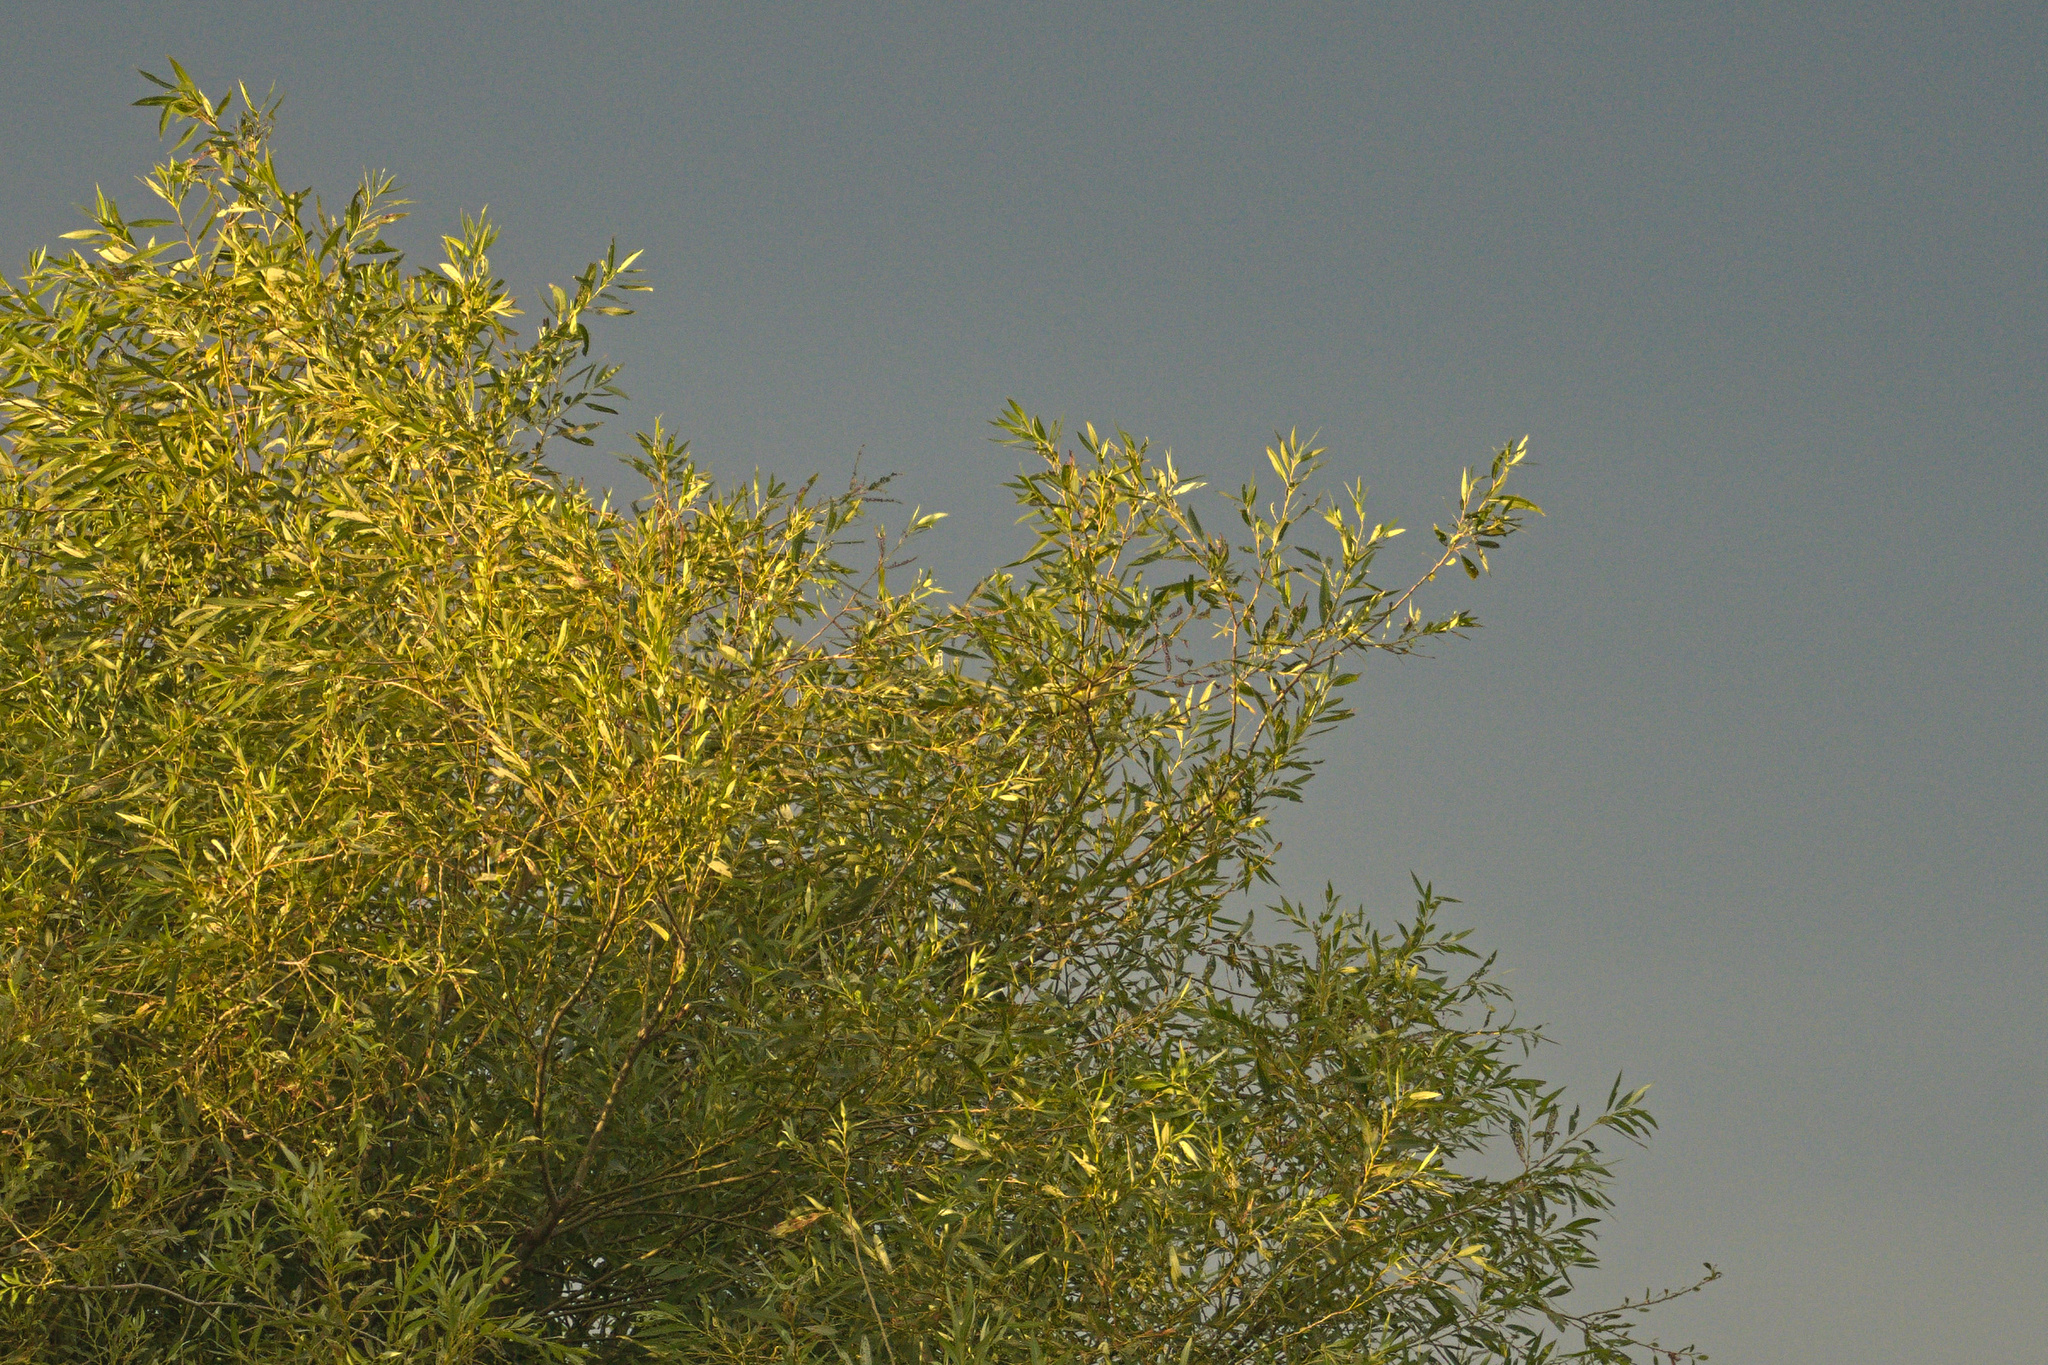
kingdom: Animalia
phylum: Chordata
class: Aves
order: Passeriformes
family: Oriolidae
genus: Oriolus
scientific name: Oriolus oriolus
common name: Eurasian golden oriole
